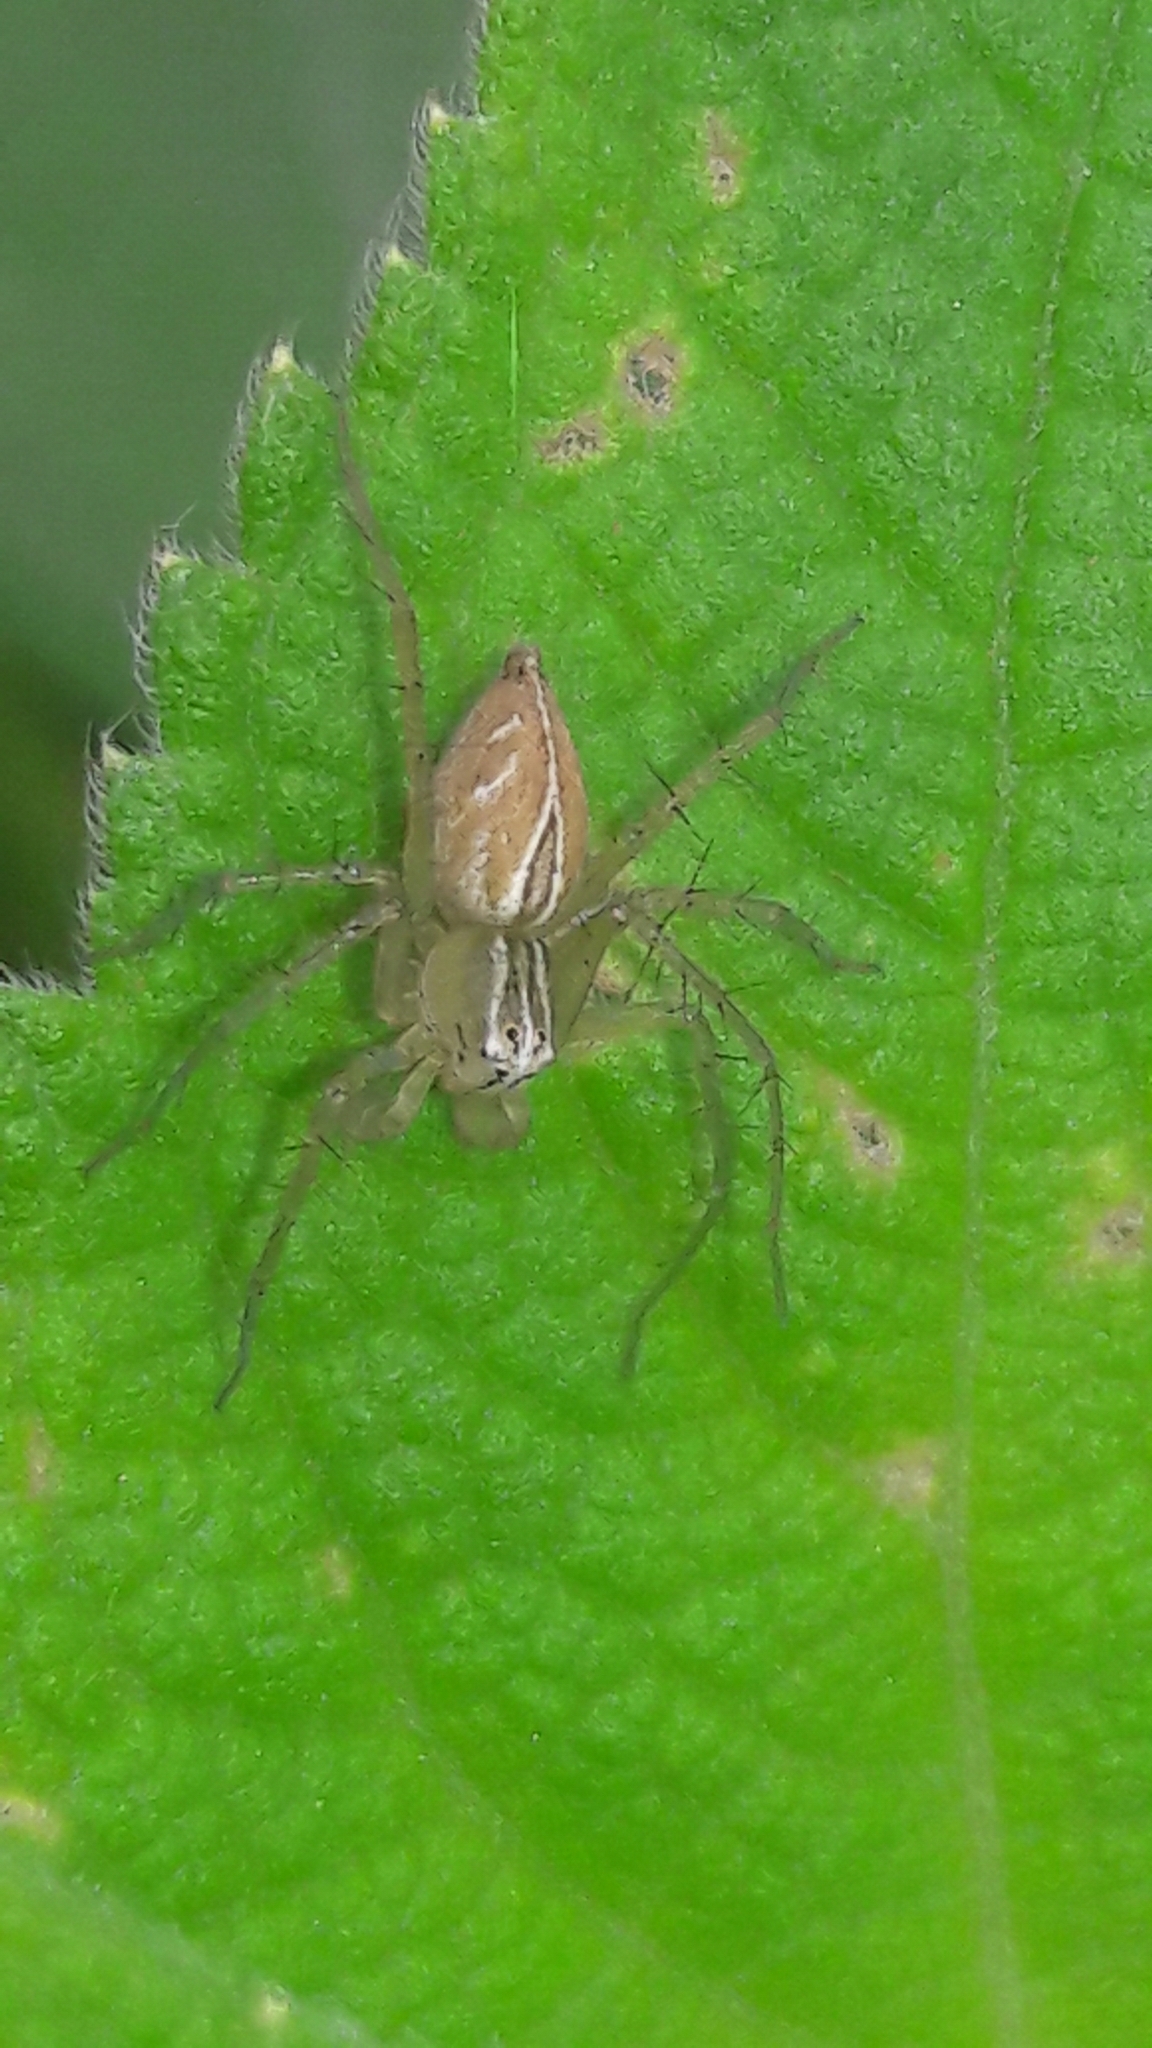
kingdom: Animalia
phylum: Arthropoda
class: Arachnida
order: Araneae
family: Oxyopidae
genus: Oxyopes
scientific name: Oxyopes salticus
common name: Lynx spiders
